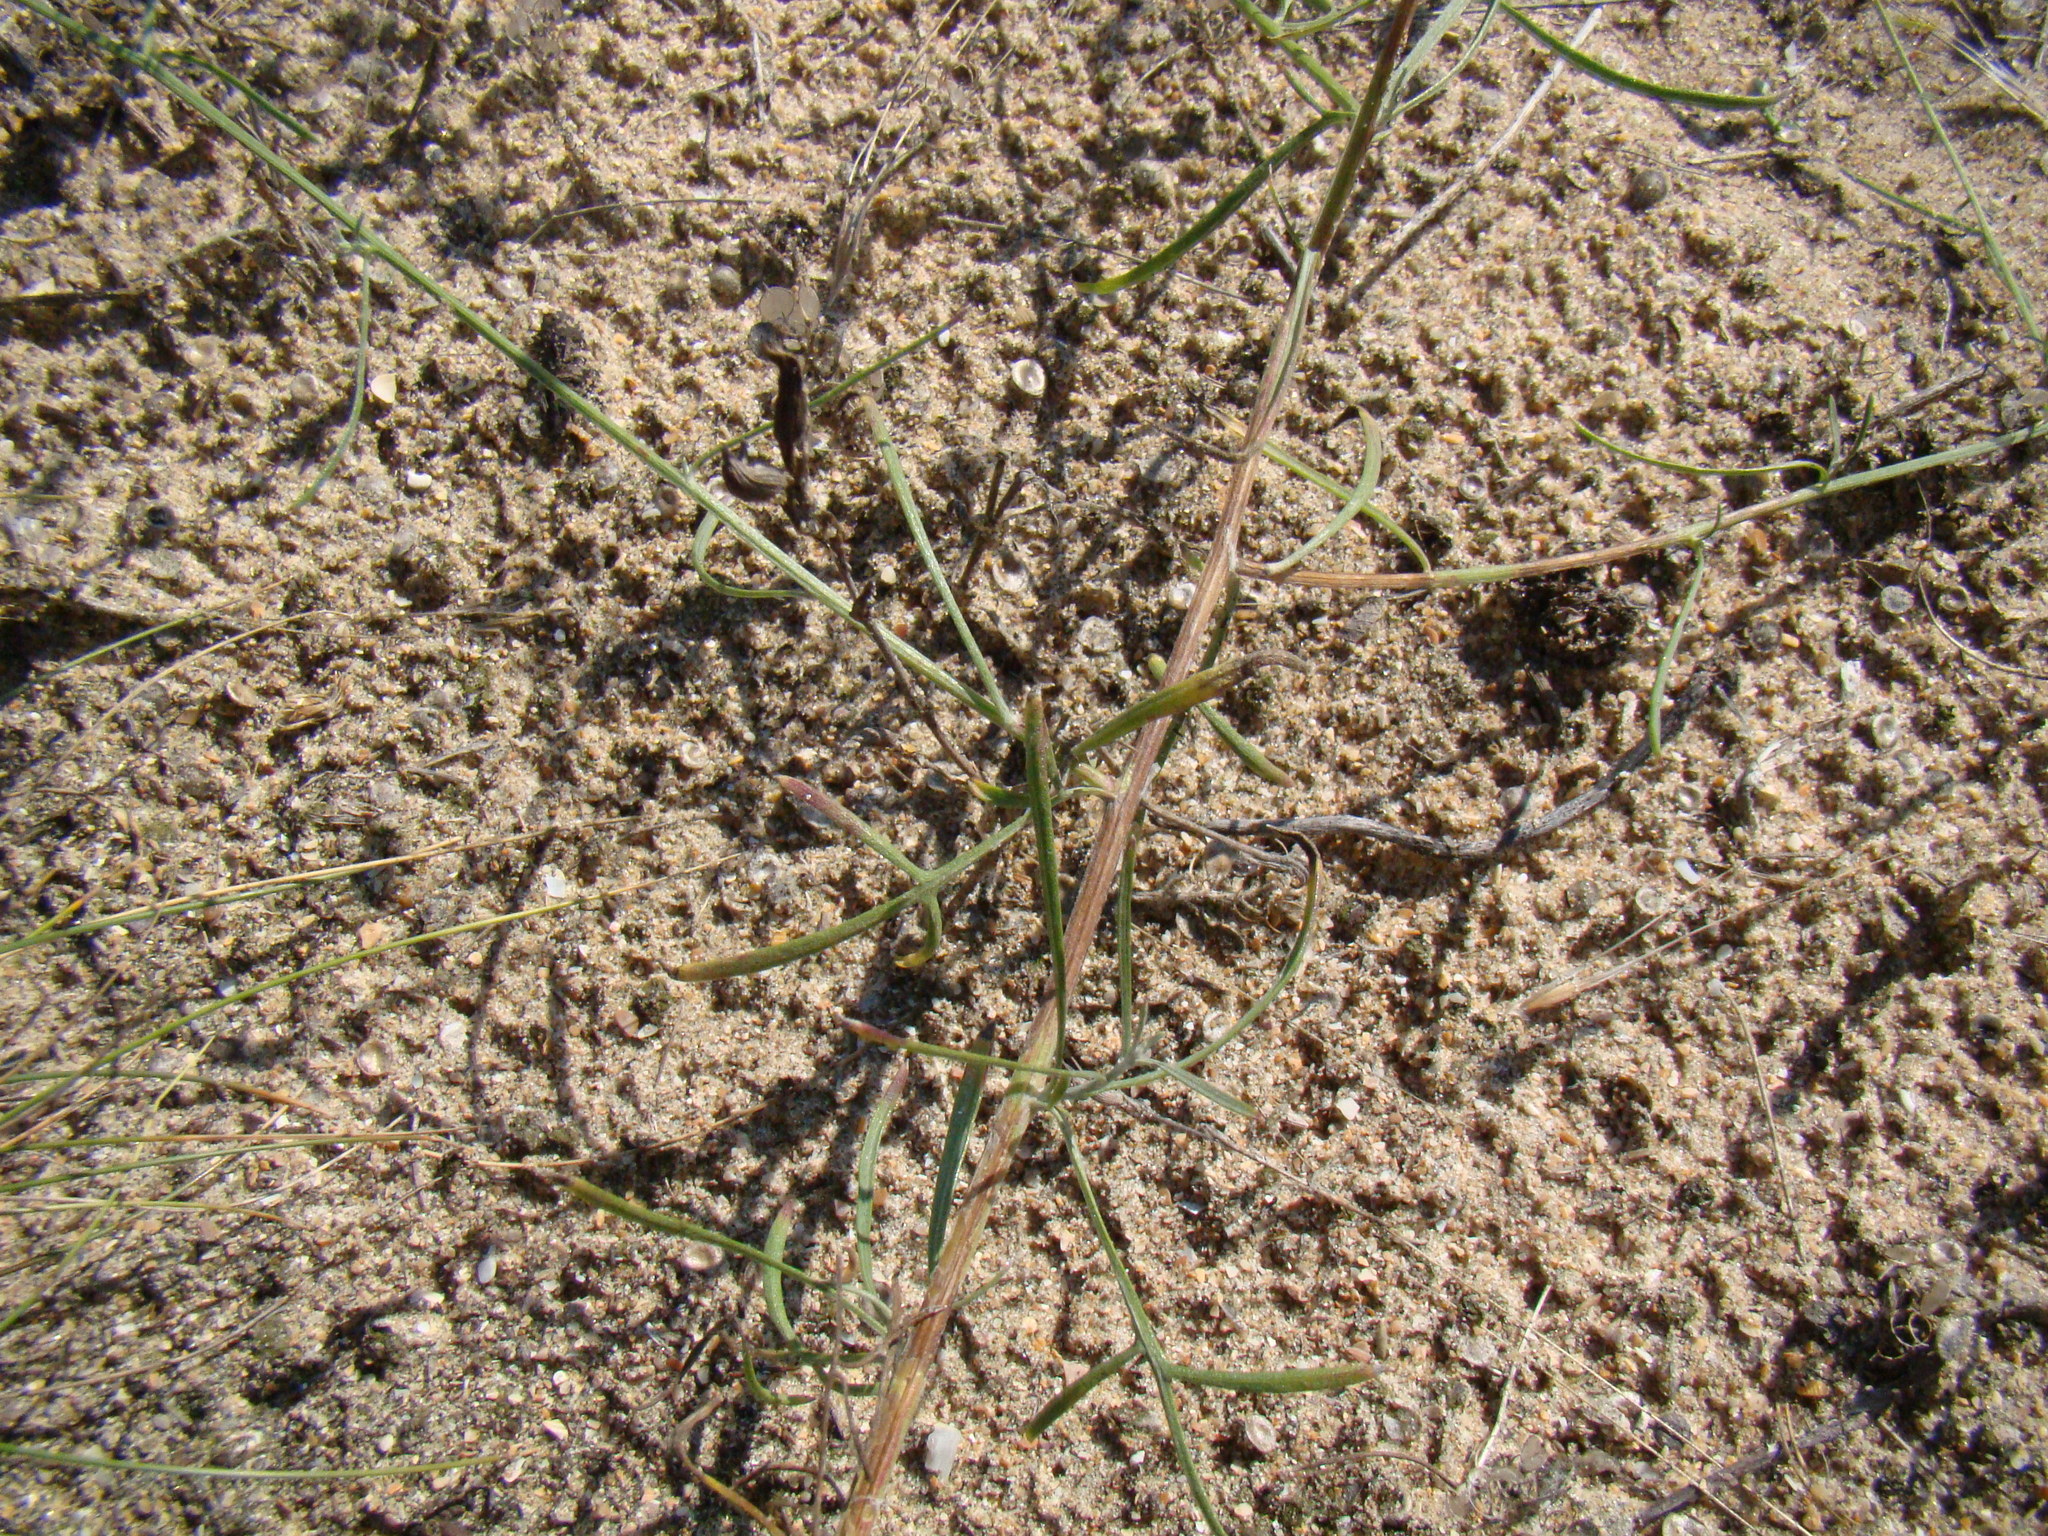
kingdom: Plantae
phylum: Tracheophyta
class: Magnoliopsida
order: Asterales
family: Asteraceae
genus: Centaurea
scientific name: Centaurea arenaria
